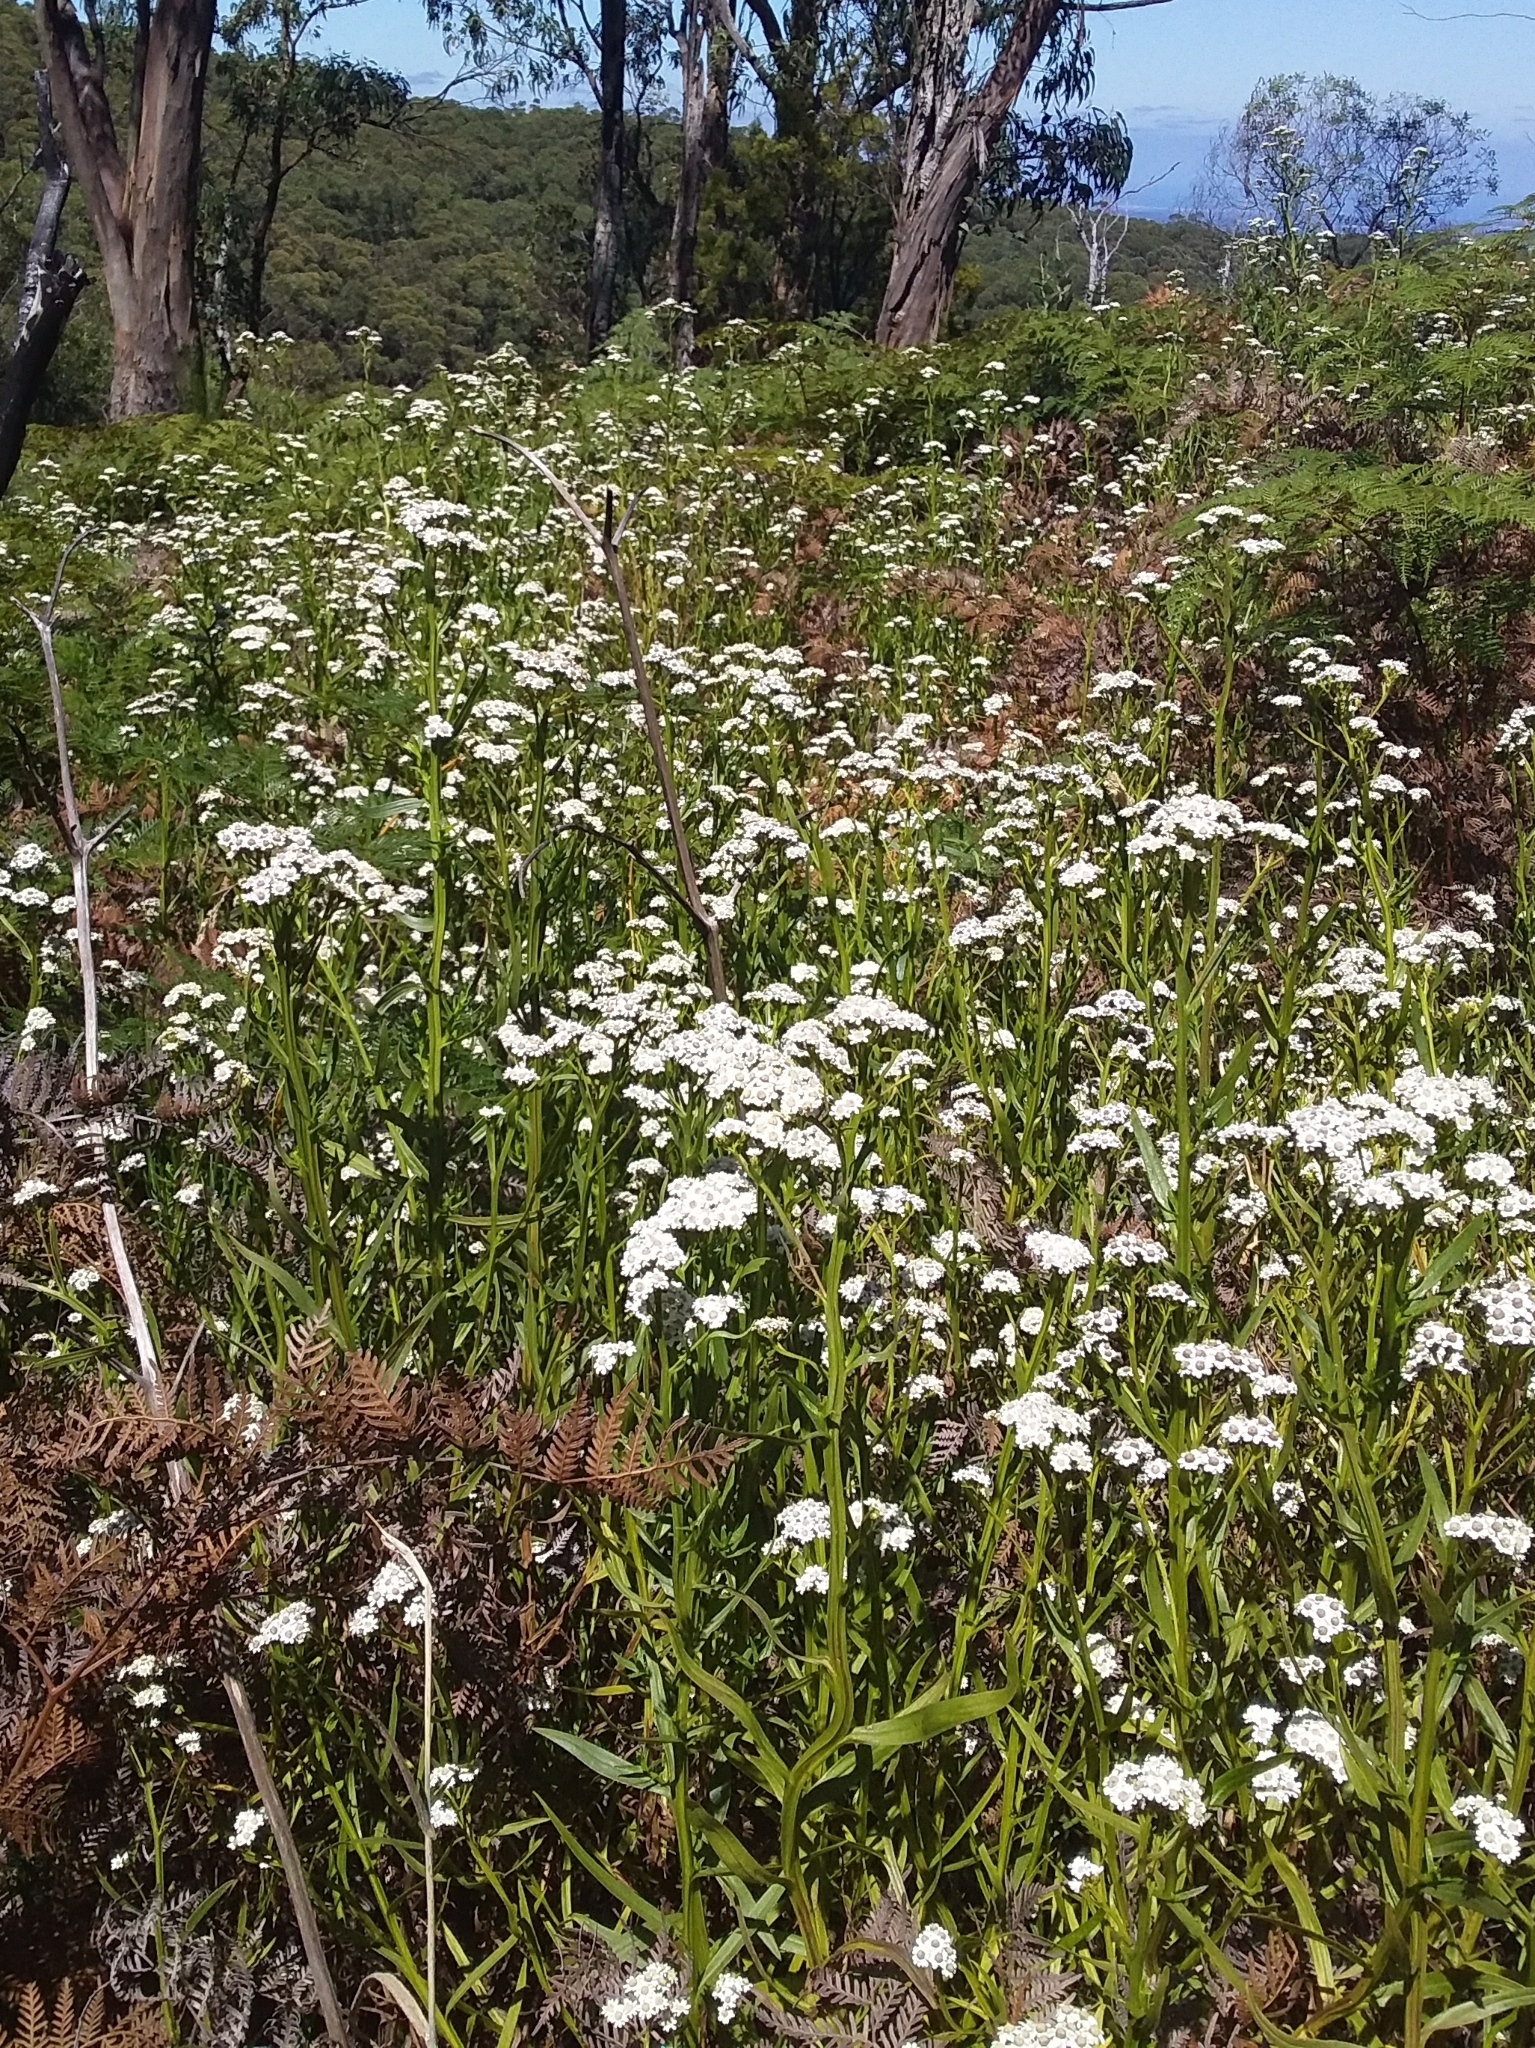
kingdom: Plantae
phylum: Tracheophyta
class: Magnoliopsida
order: Asterales
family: Asteraceae
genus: Ixodia
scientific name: Ixodia achillaeoides
